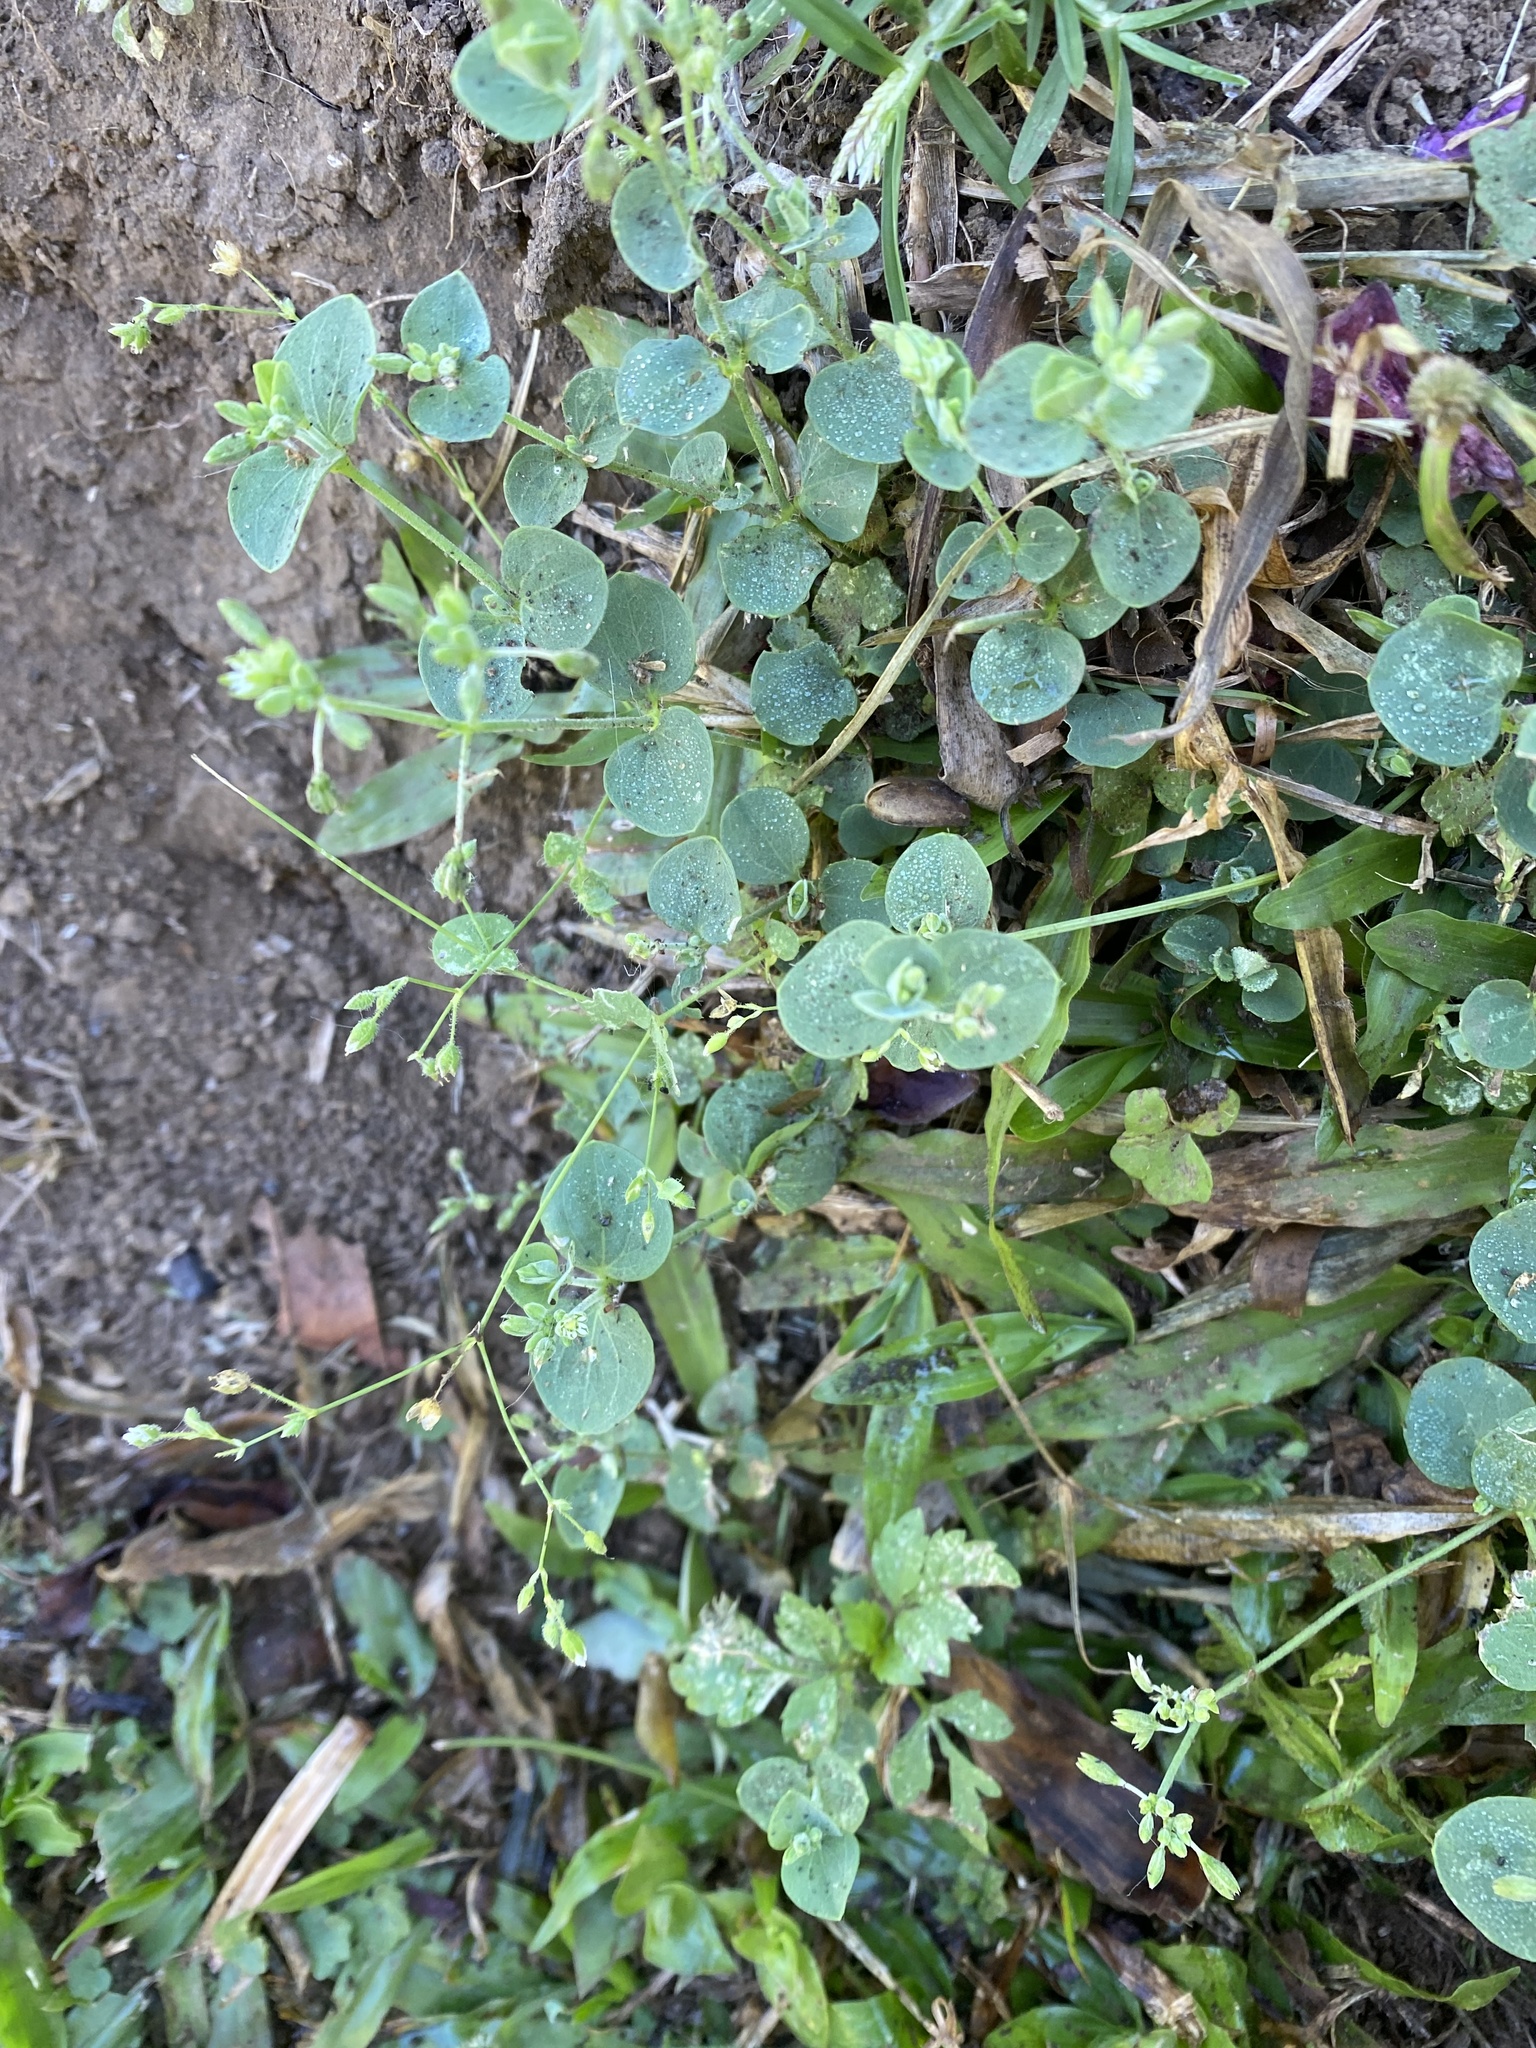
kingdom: Plantae
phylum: Tracheophyta
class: Magnoliopsida
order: Caryophyllales
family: Caryophyllaceae
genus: Drymaria
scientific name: Drymaria cordata
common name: Whitesnow
